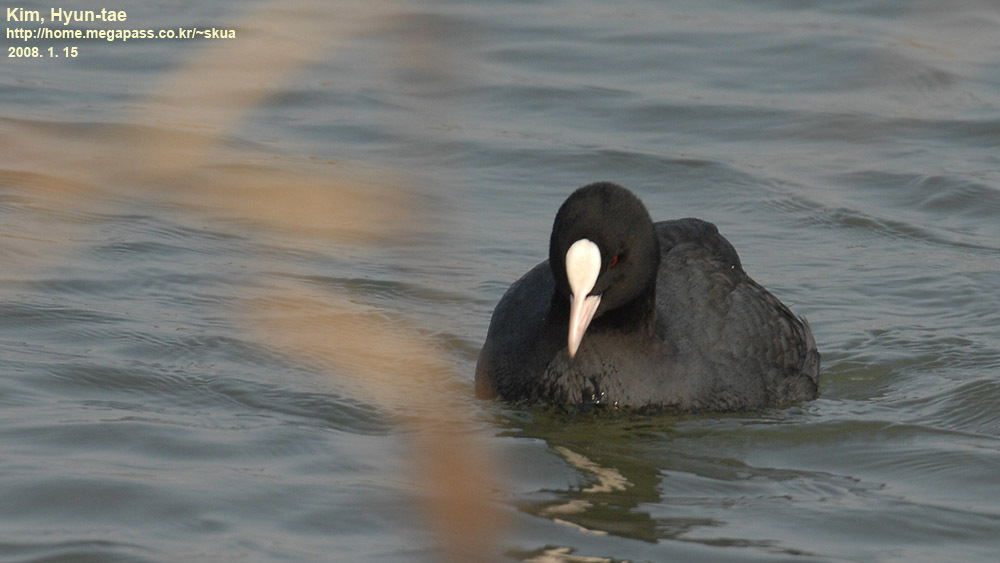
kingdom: Animalia
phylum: Chordata
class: Aves
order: Gruiformes
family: Rallidae
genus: Fulica
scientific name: Fulica atra
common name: Eurasian coot
